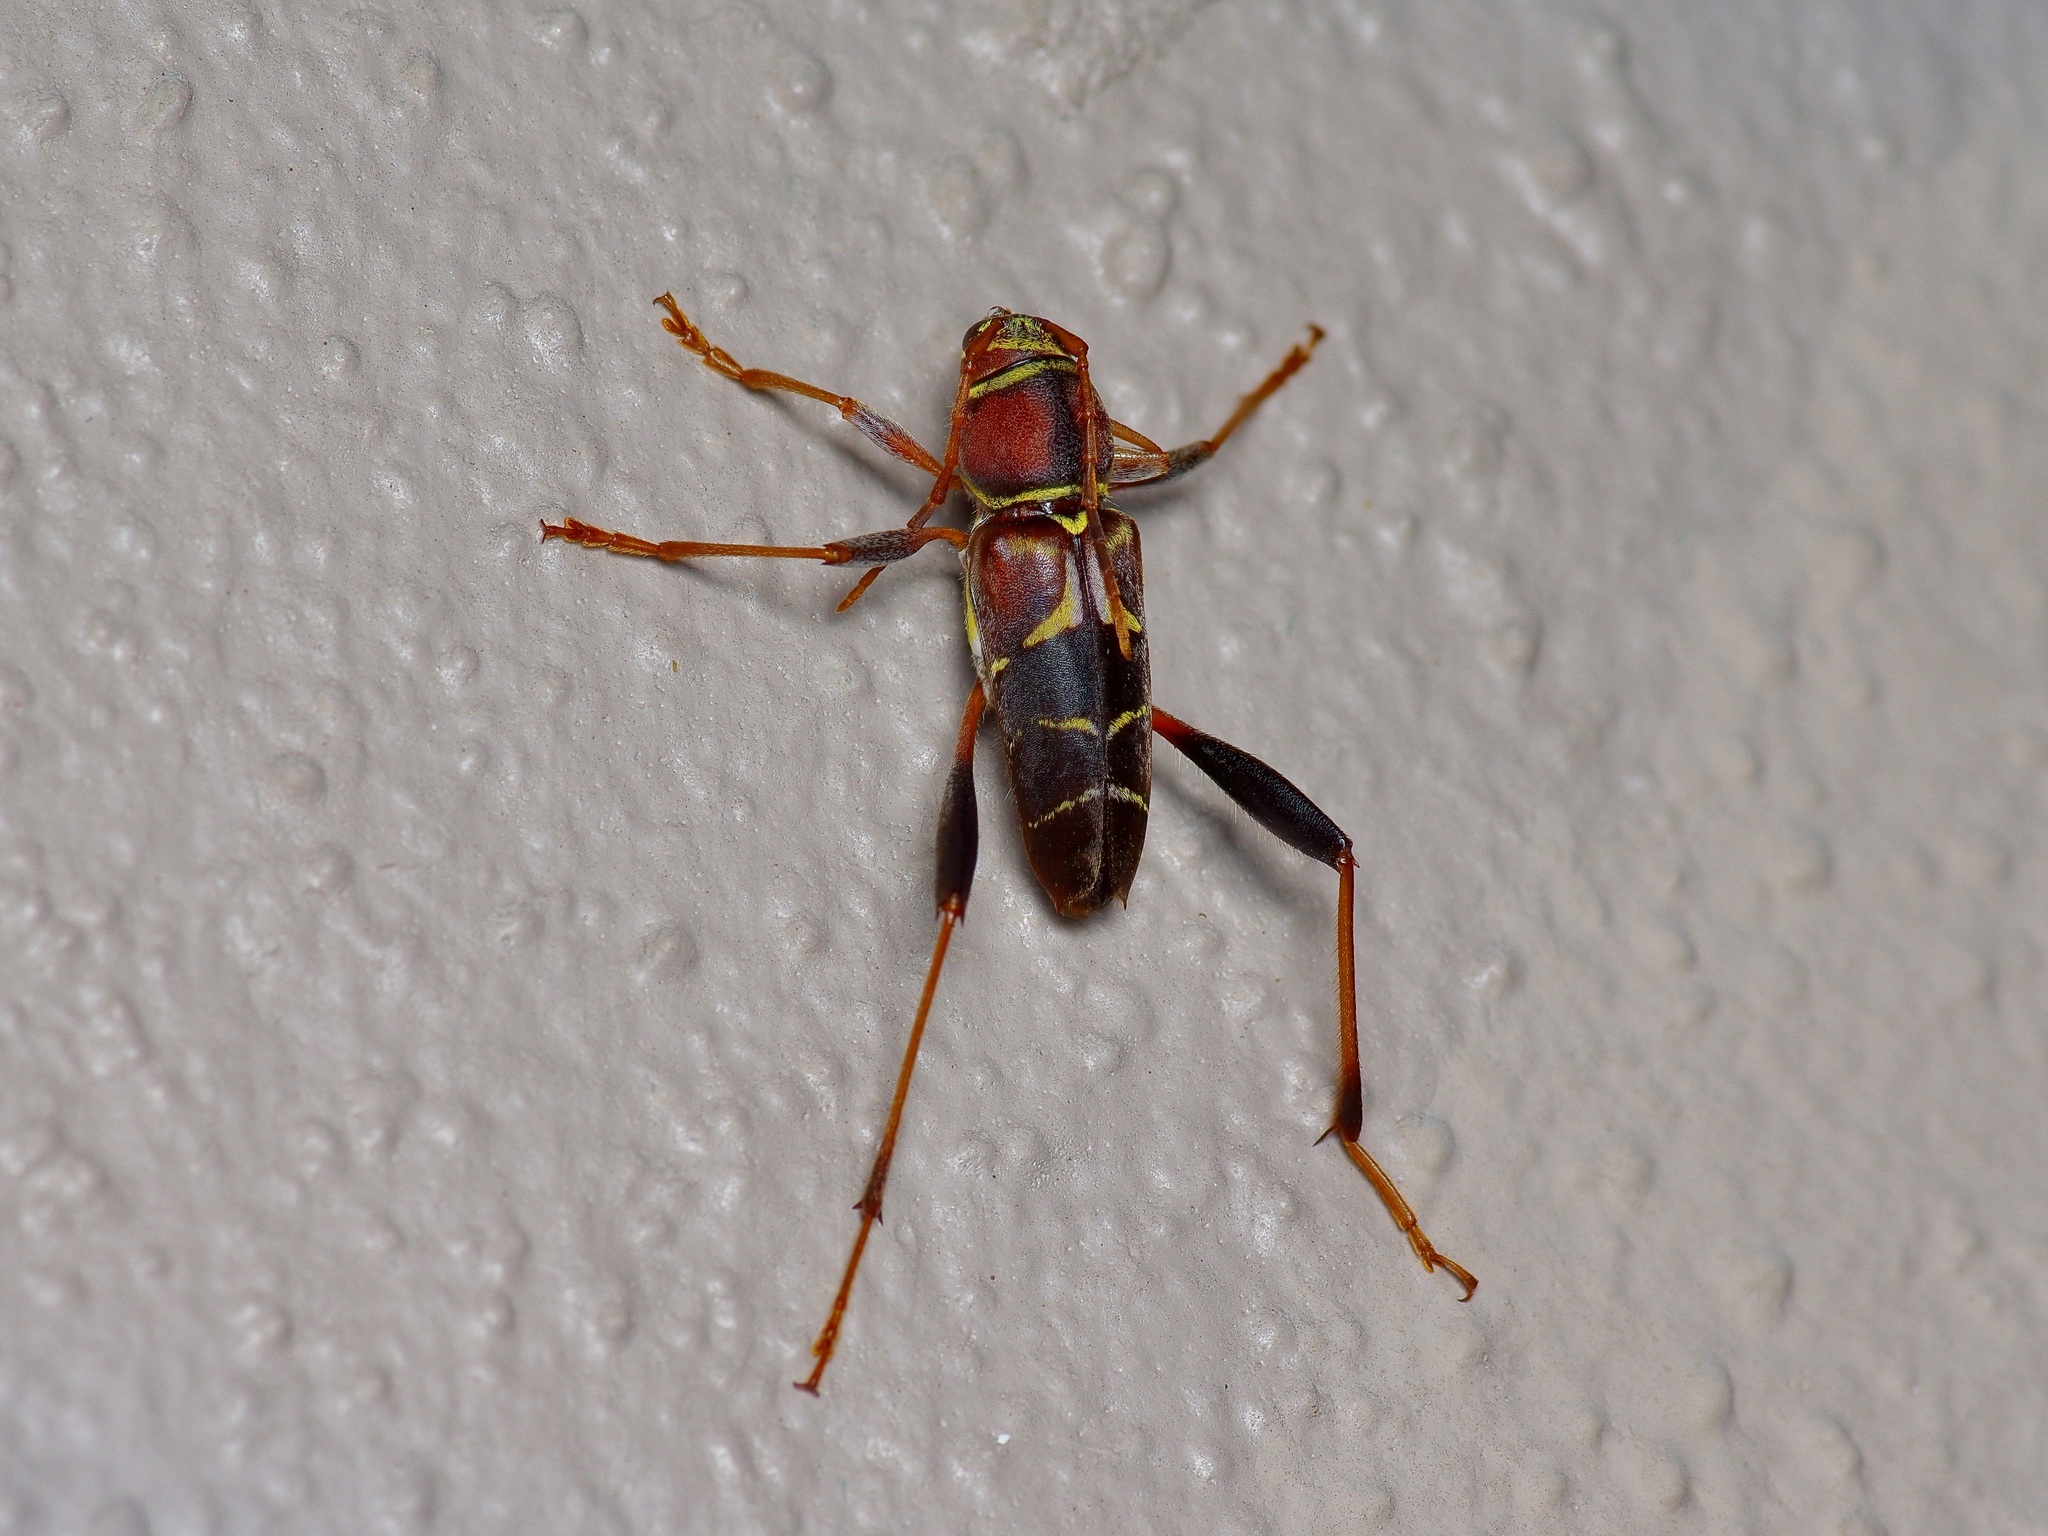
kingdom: Animalia
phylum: Arthropoda
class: Insecta
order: Coleoptera
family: Cerambycidae
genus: Neoclytus
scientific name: Neoclytus mucronatus
